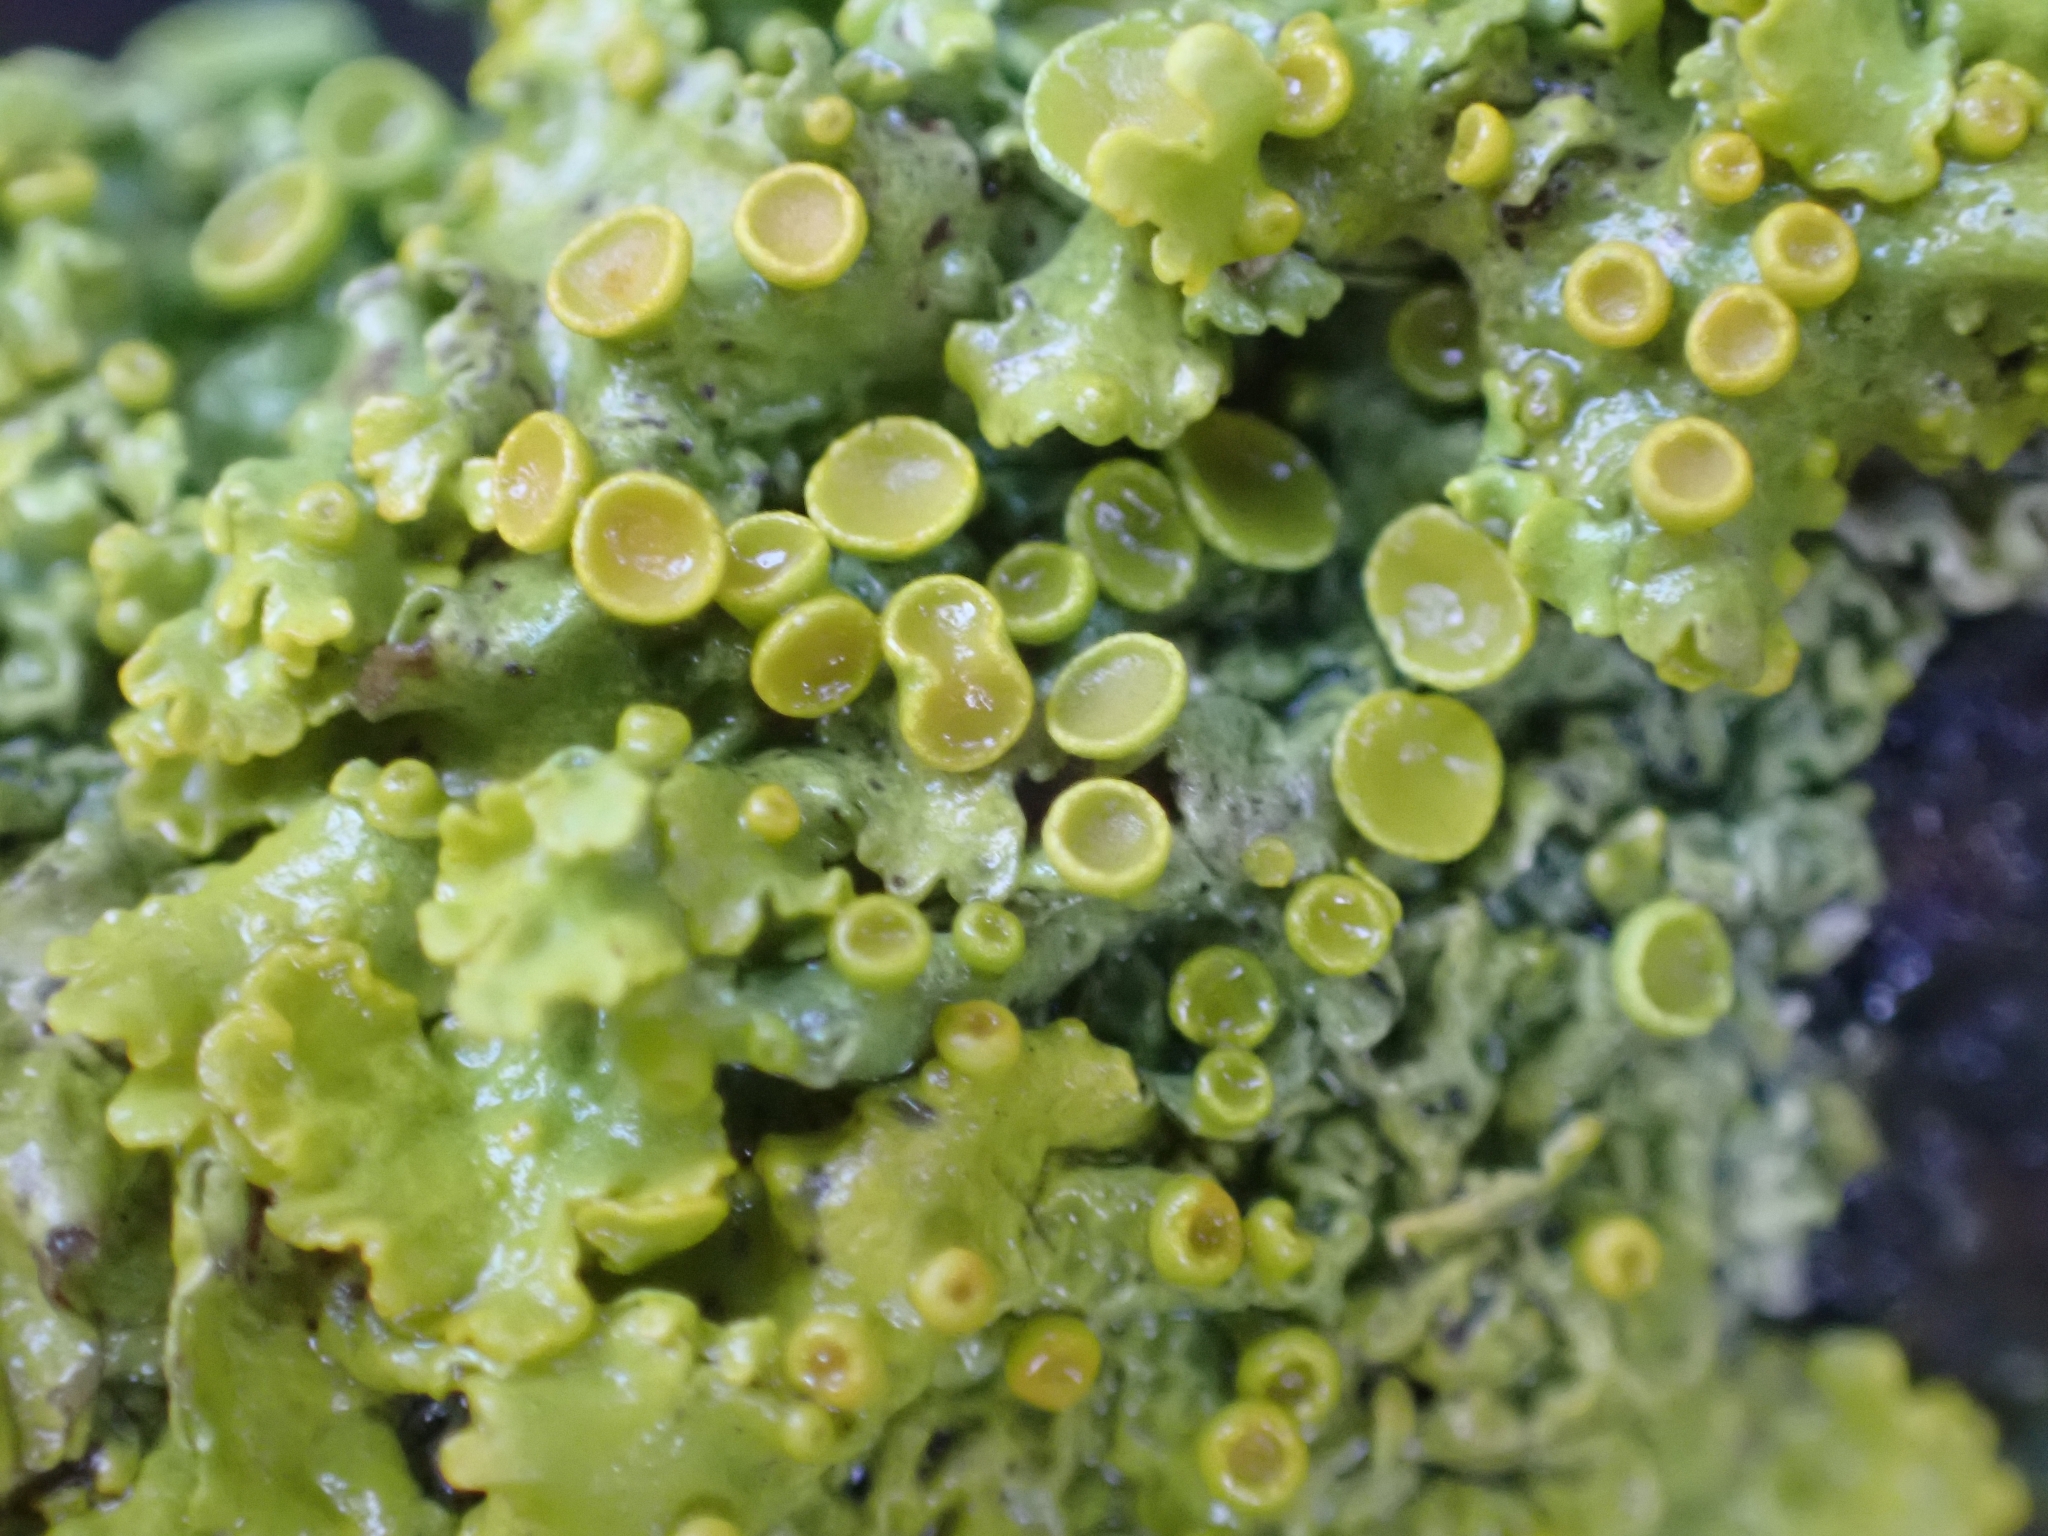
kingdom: Fungi
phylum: Ascomycota
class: Lecanoromycetes
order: Teloschistales
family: Teloschistaceae
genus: Xanthoria
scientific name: Xanthoria parietina
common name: Common orange lichen
